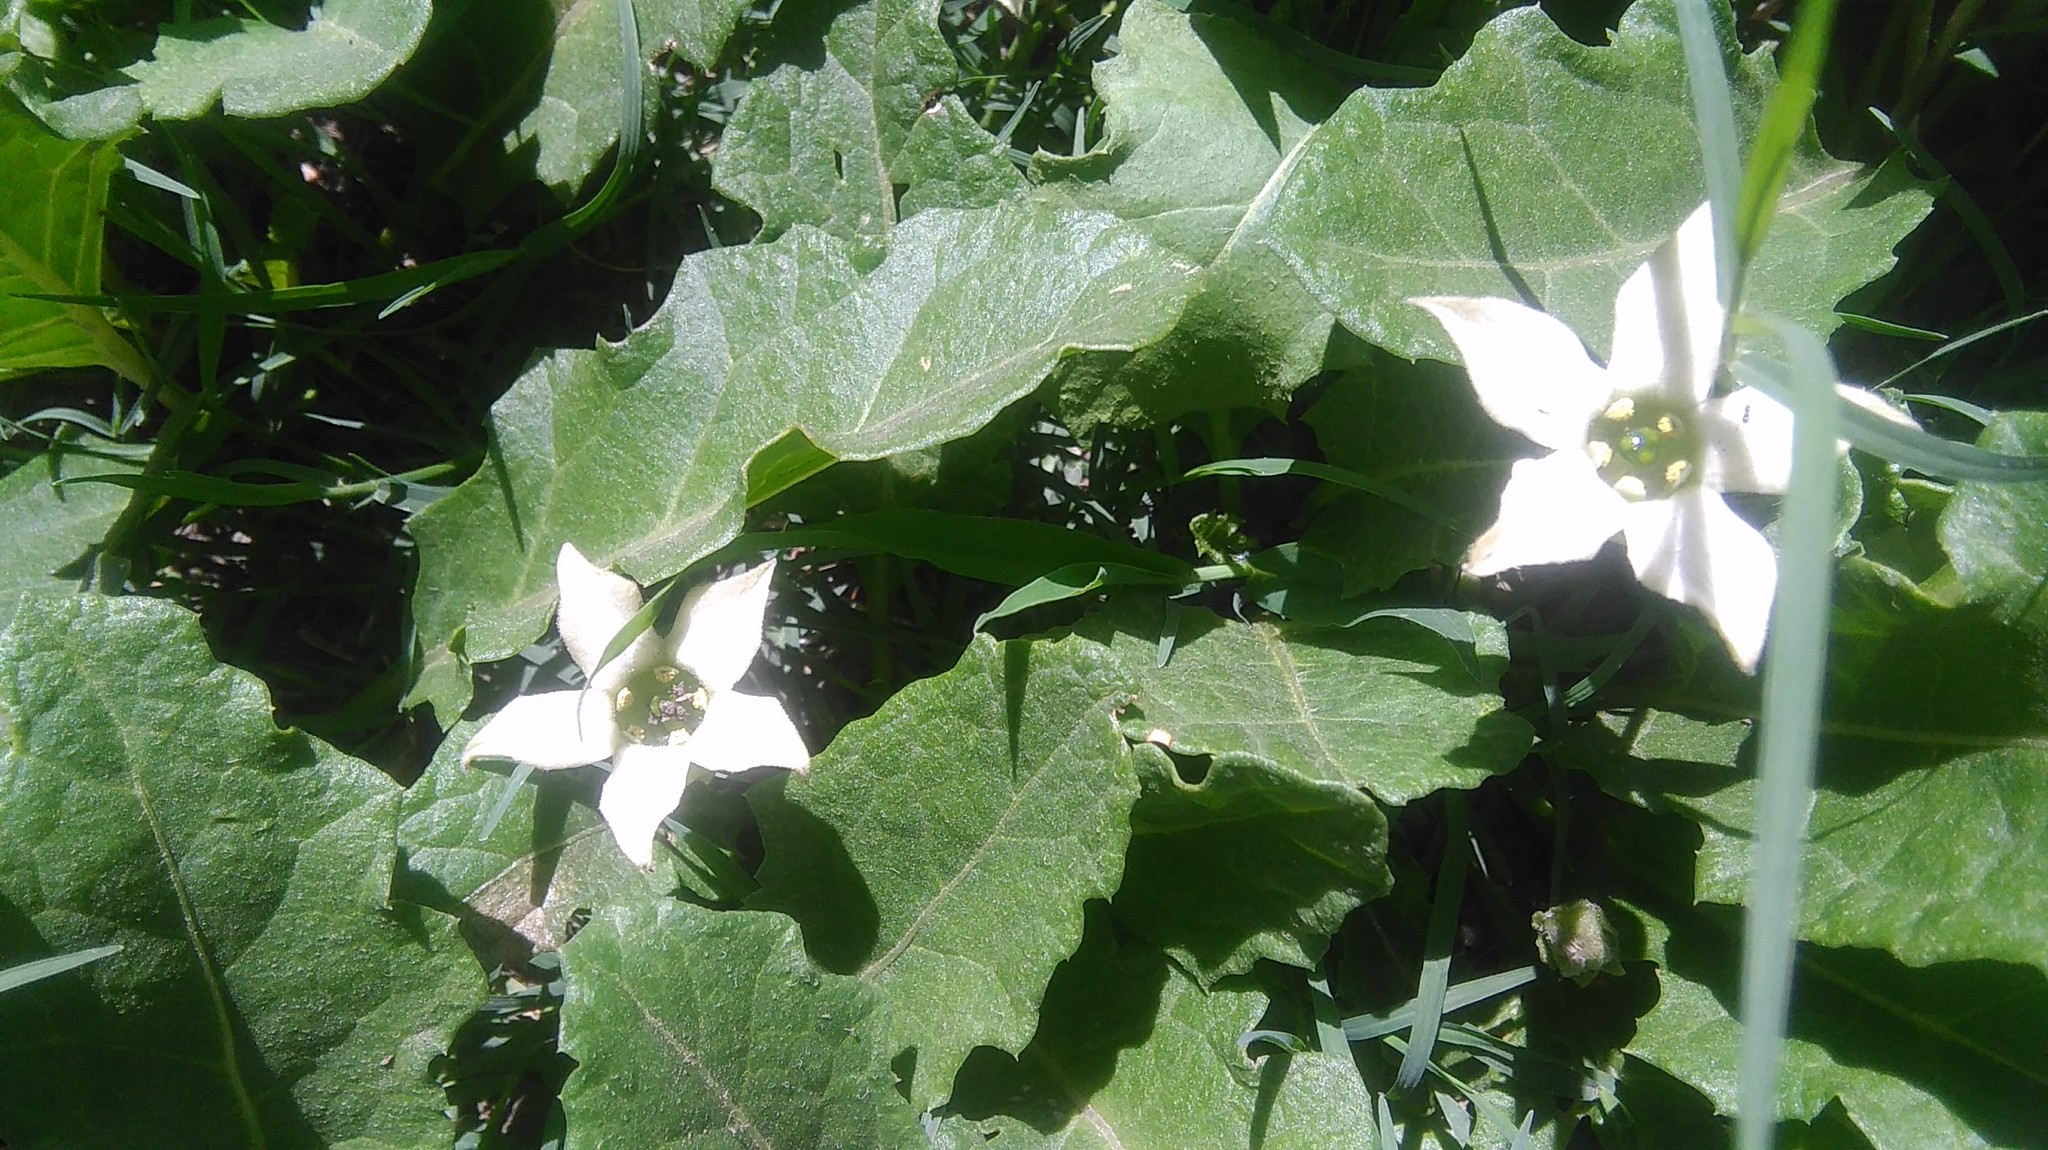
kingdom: Plantae
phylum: Tracheophyta
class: Magnoliopsida
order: Solanales
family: Solanaceae
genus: Jaborosa
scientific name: Jaborosa runcinata
